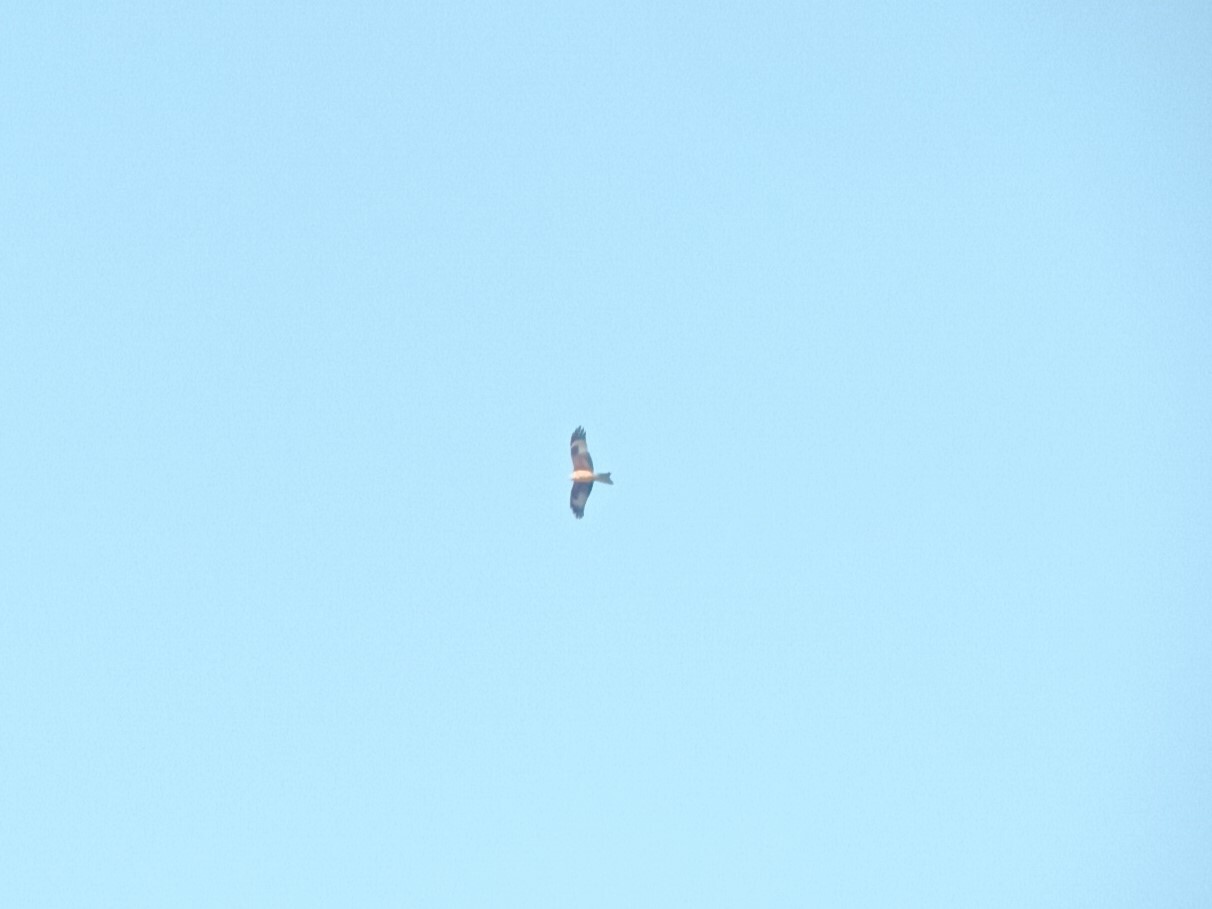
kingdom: Animalia
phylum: Chordata
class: Aves
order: Accipitriformes
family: Accipitridae
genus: Milvus
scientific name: Milvus milvus
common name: Red kite
